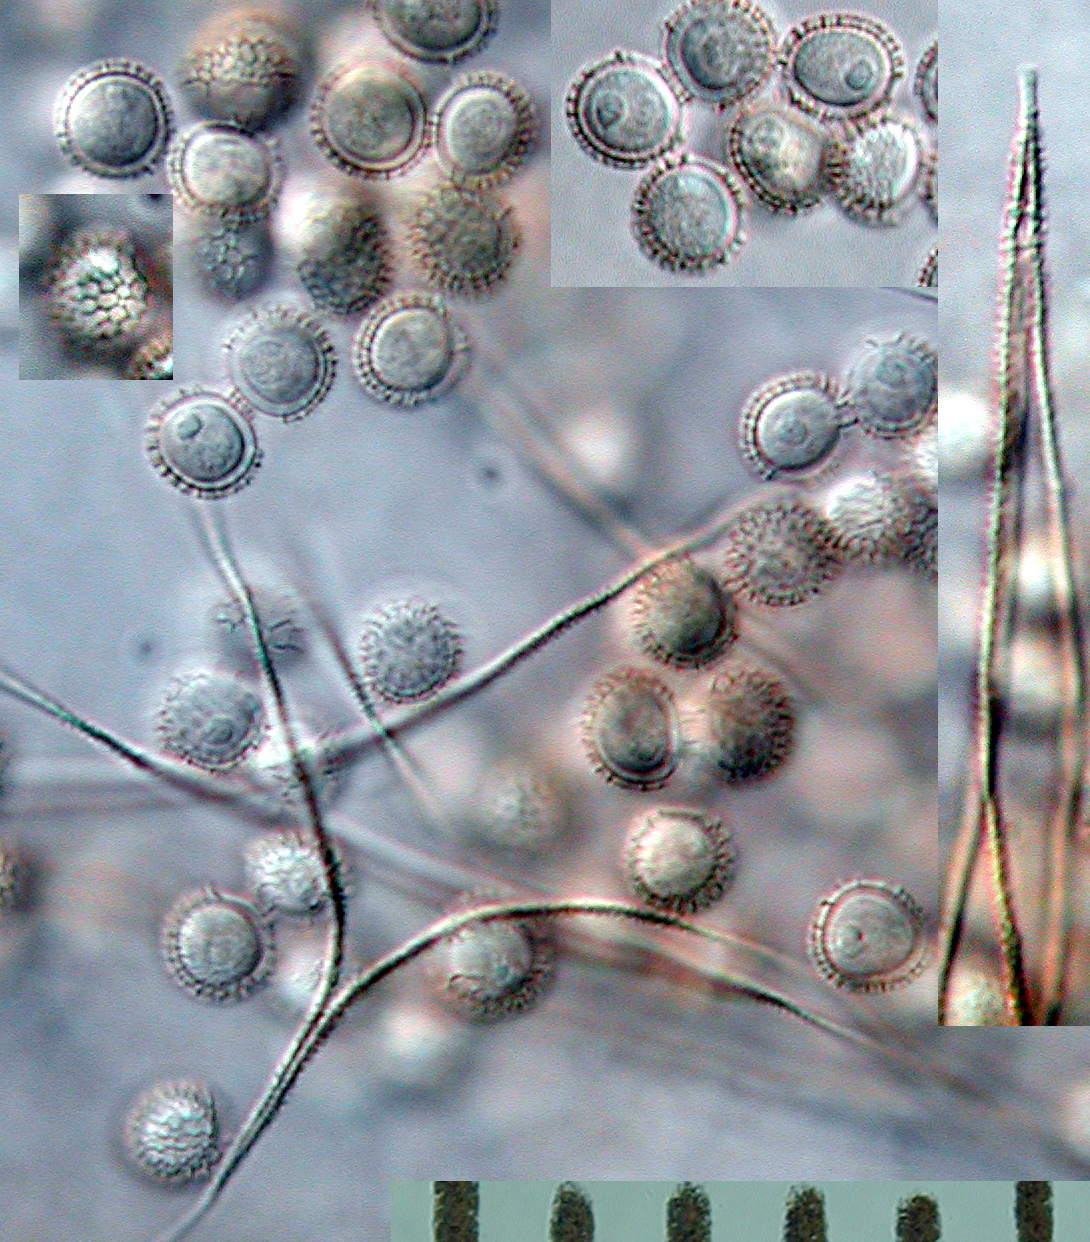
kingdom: Protozoa
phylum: Mycetozoa
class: Myxomycetes
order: Trichiales
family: Dianemataceae
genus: Dianema
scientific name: Dianema depressum
